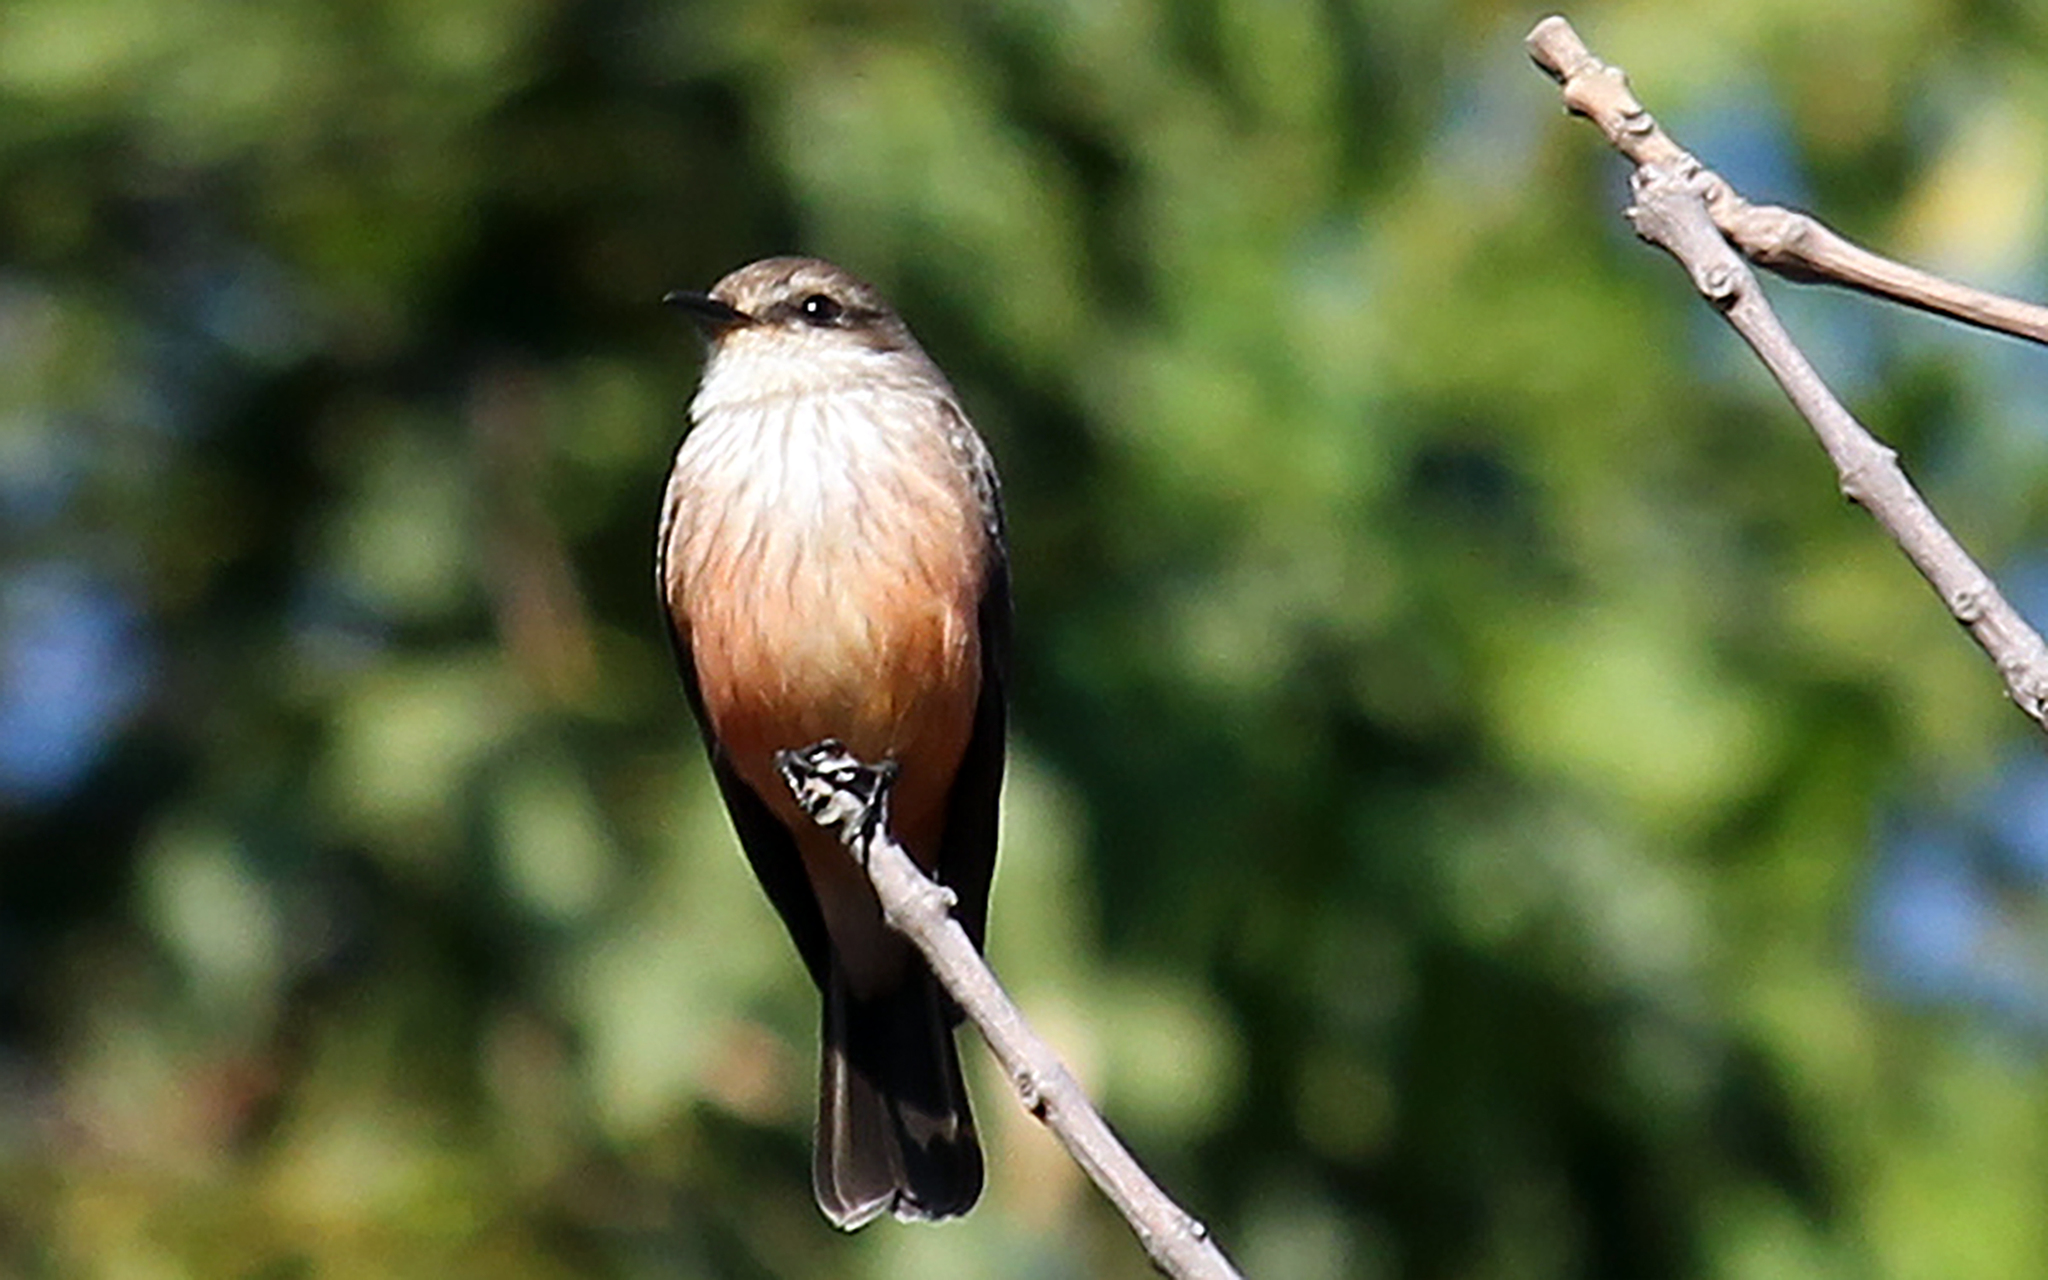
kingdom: Animalia
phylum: Chordata
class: Aves
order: Passeriformes
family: Tyrannidae
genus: Pyrocephalus
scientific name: Pyrocephalus rubinus
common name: Vermilion flycatcher
